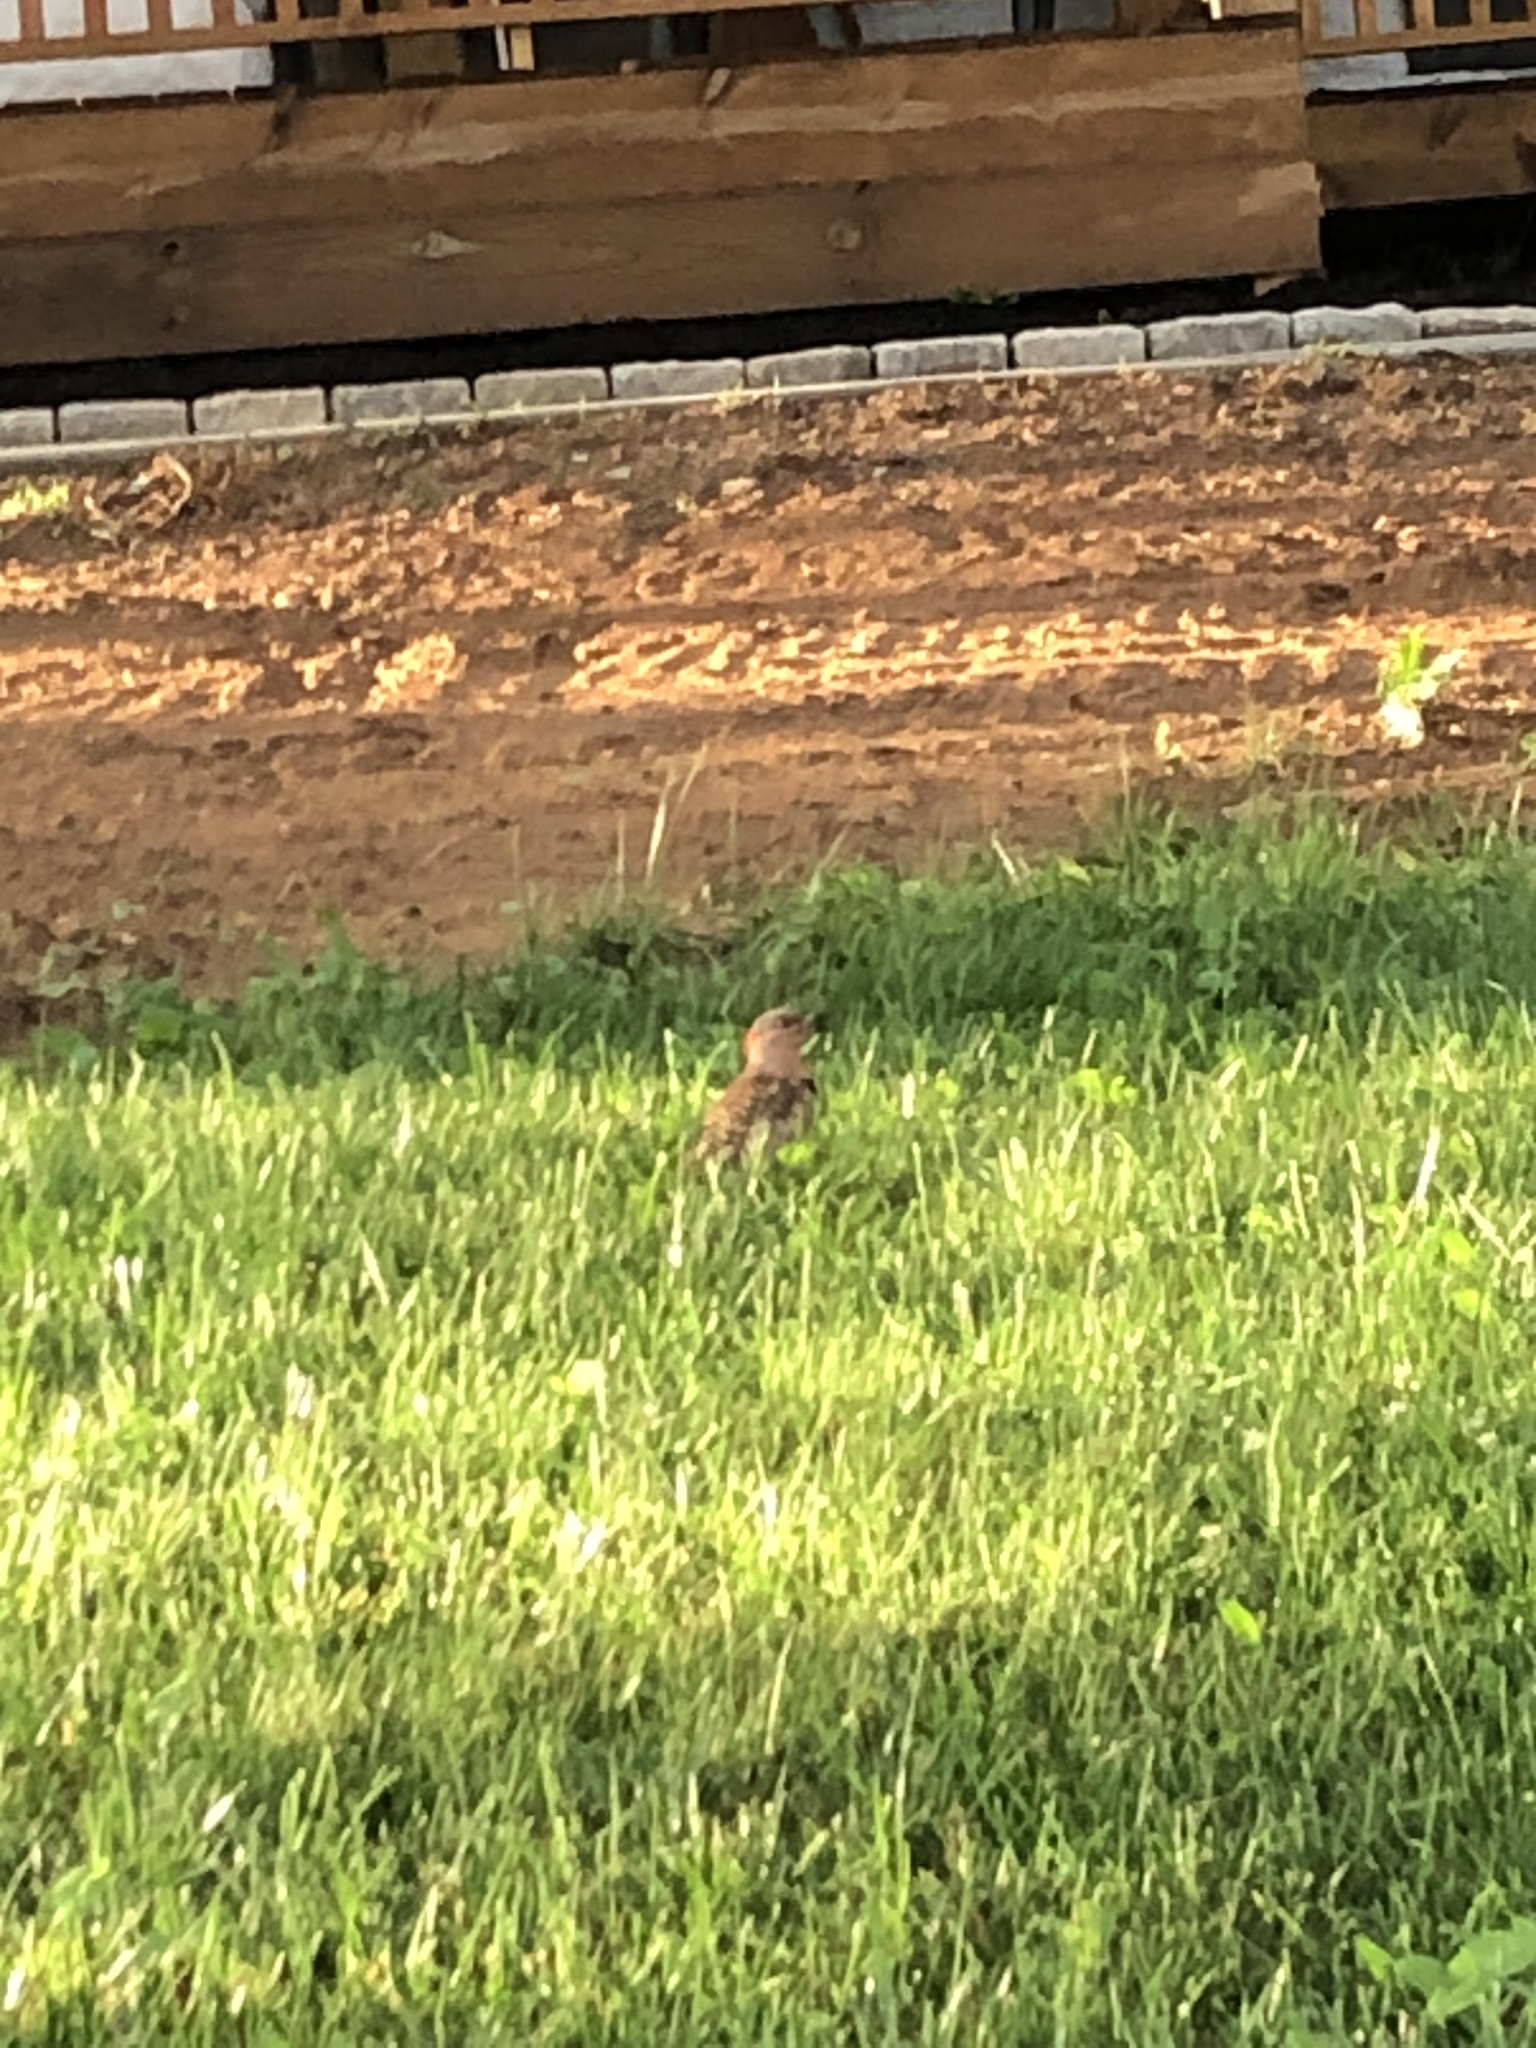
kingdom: Animalia
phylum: Chordata
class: Aves
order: Piciformes
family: Picidae
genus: Colaptes
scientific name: Colaptes auratus
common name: Northern flicker
